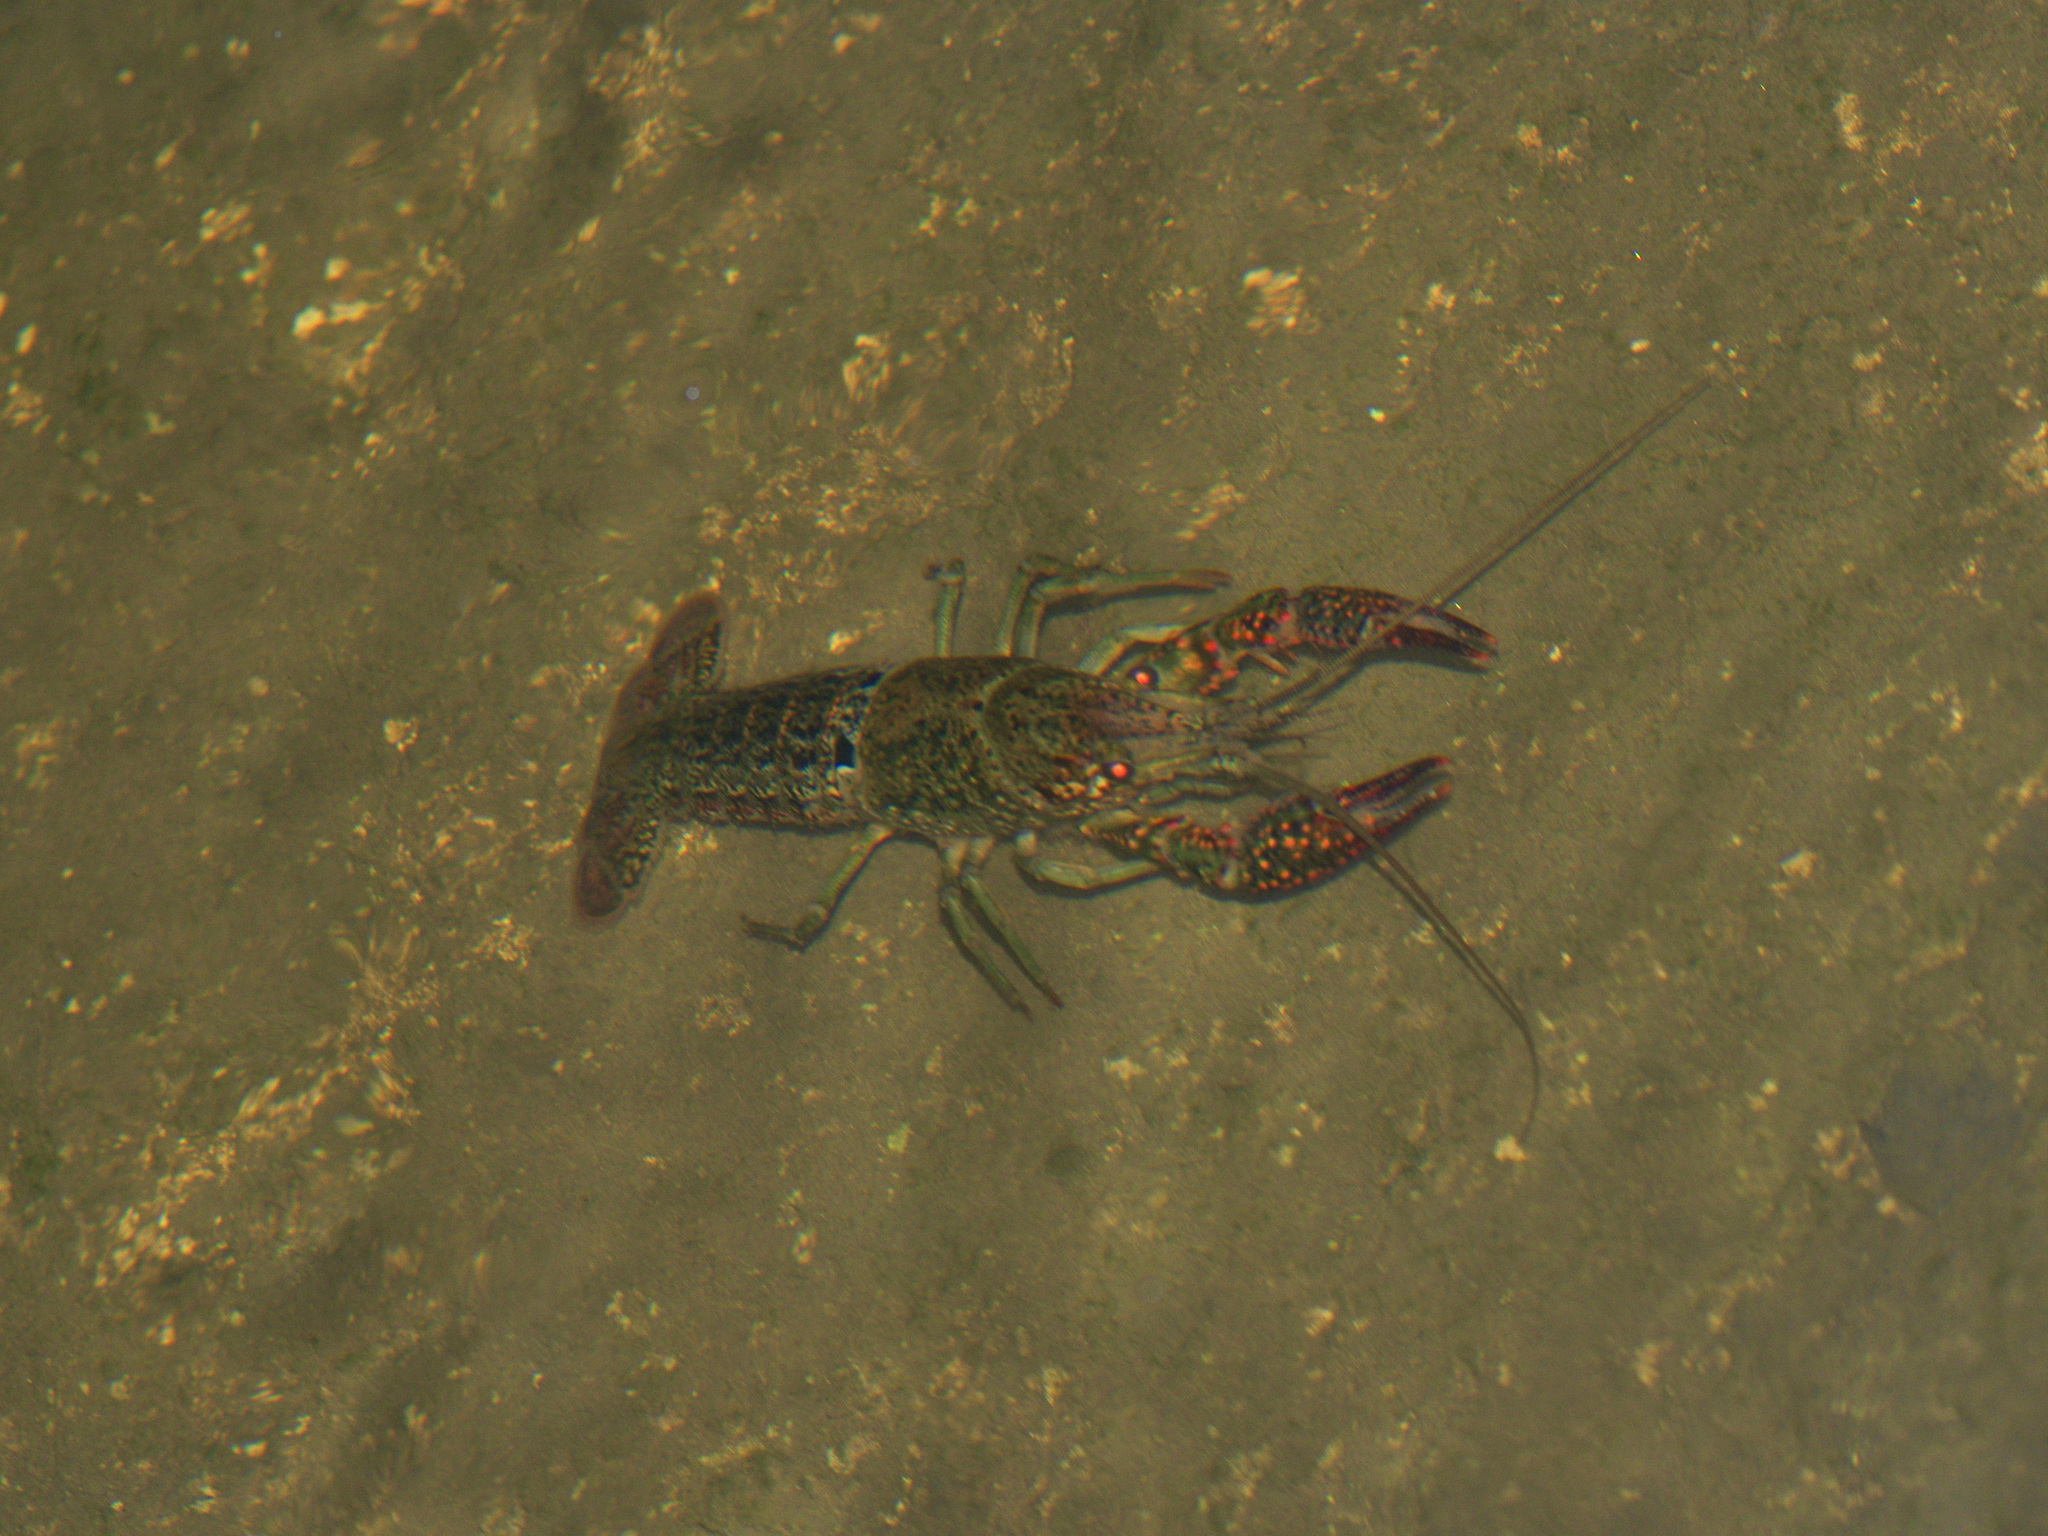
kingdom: Animalia
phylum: Arthropoda
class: Malacostraca
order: Decapoda
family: Cambaridae
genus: Procambarus
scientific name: Procambarus clarkii
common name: Red swamp crayfish
